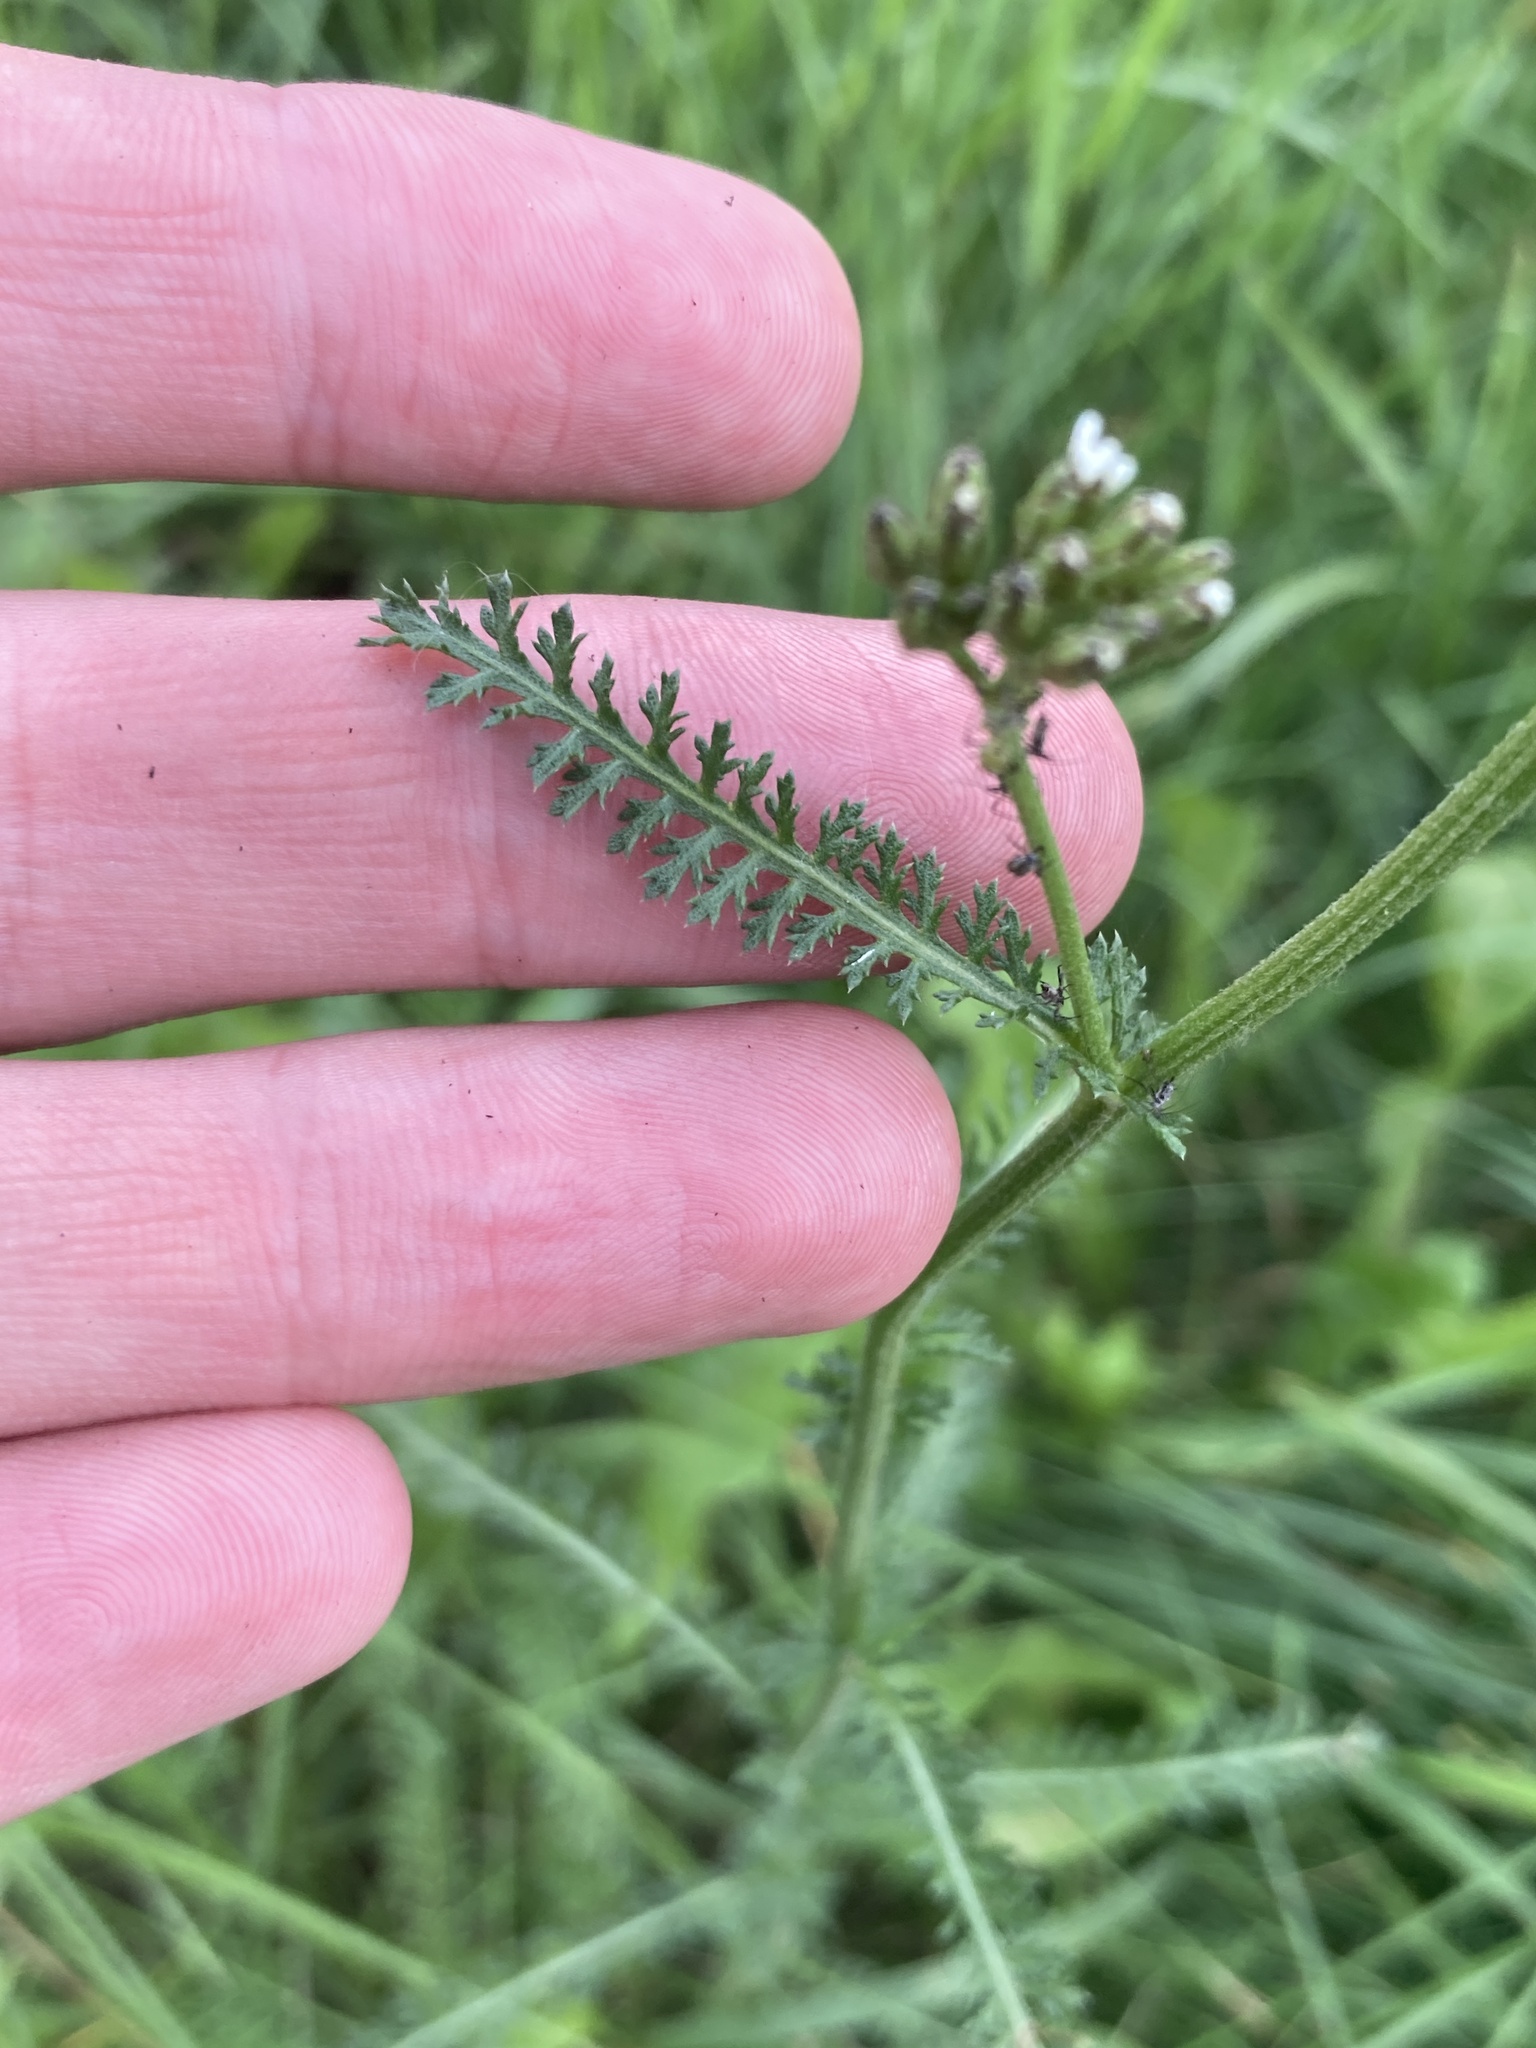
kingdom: Plantae
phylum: Tracheophyta
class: Magnoliopsida
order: Asterales
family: Asteraceae
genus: Achillea
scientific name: Achillea millefolium
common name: Yarrow
